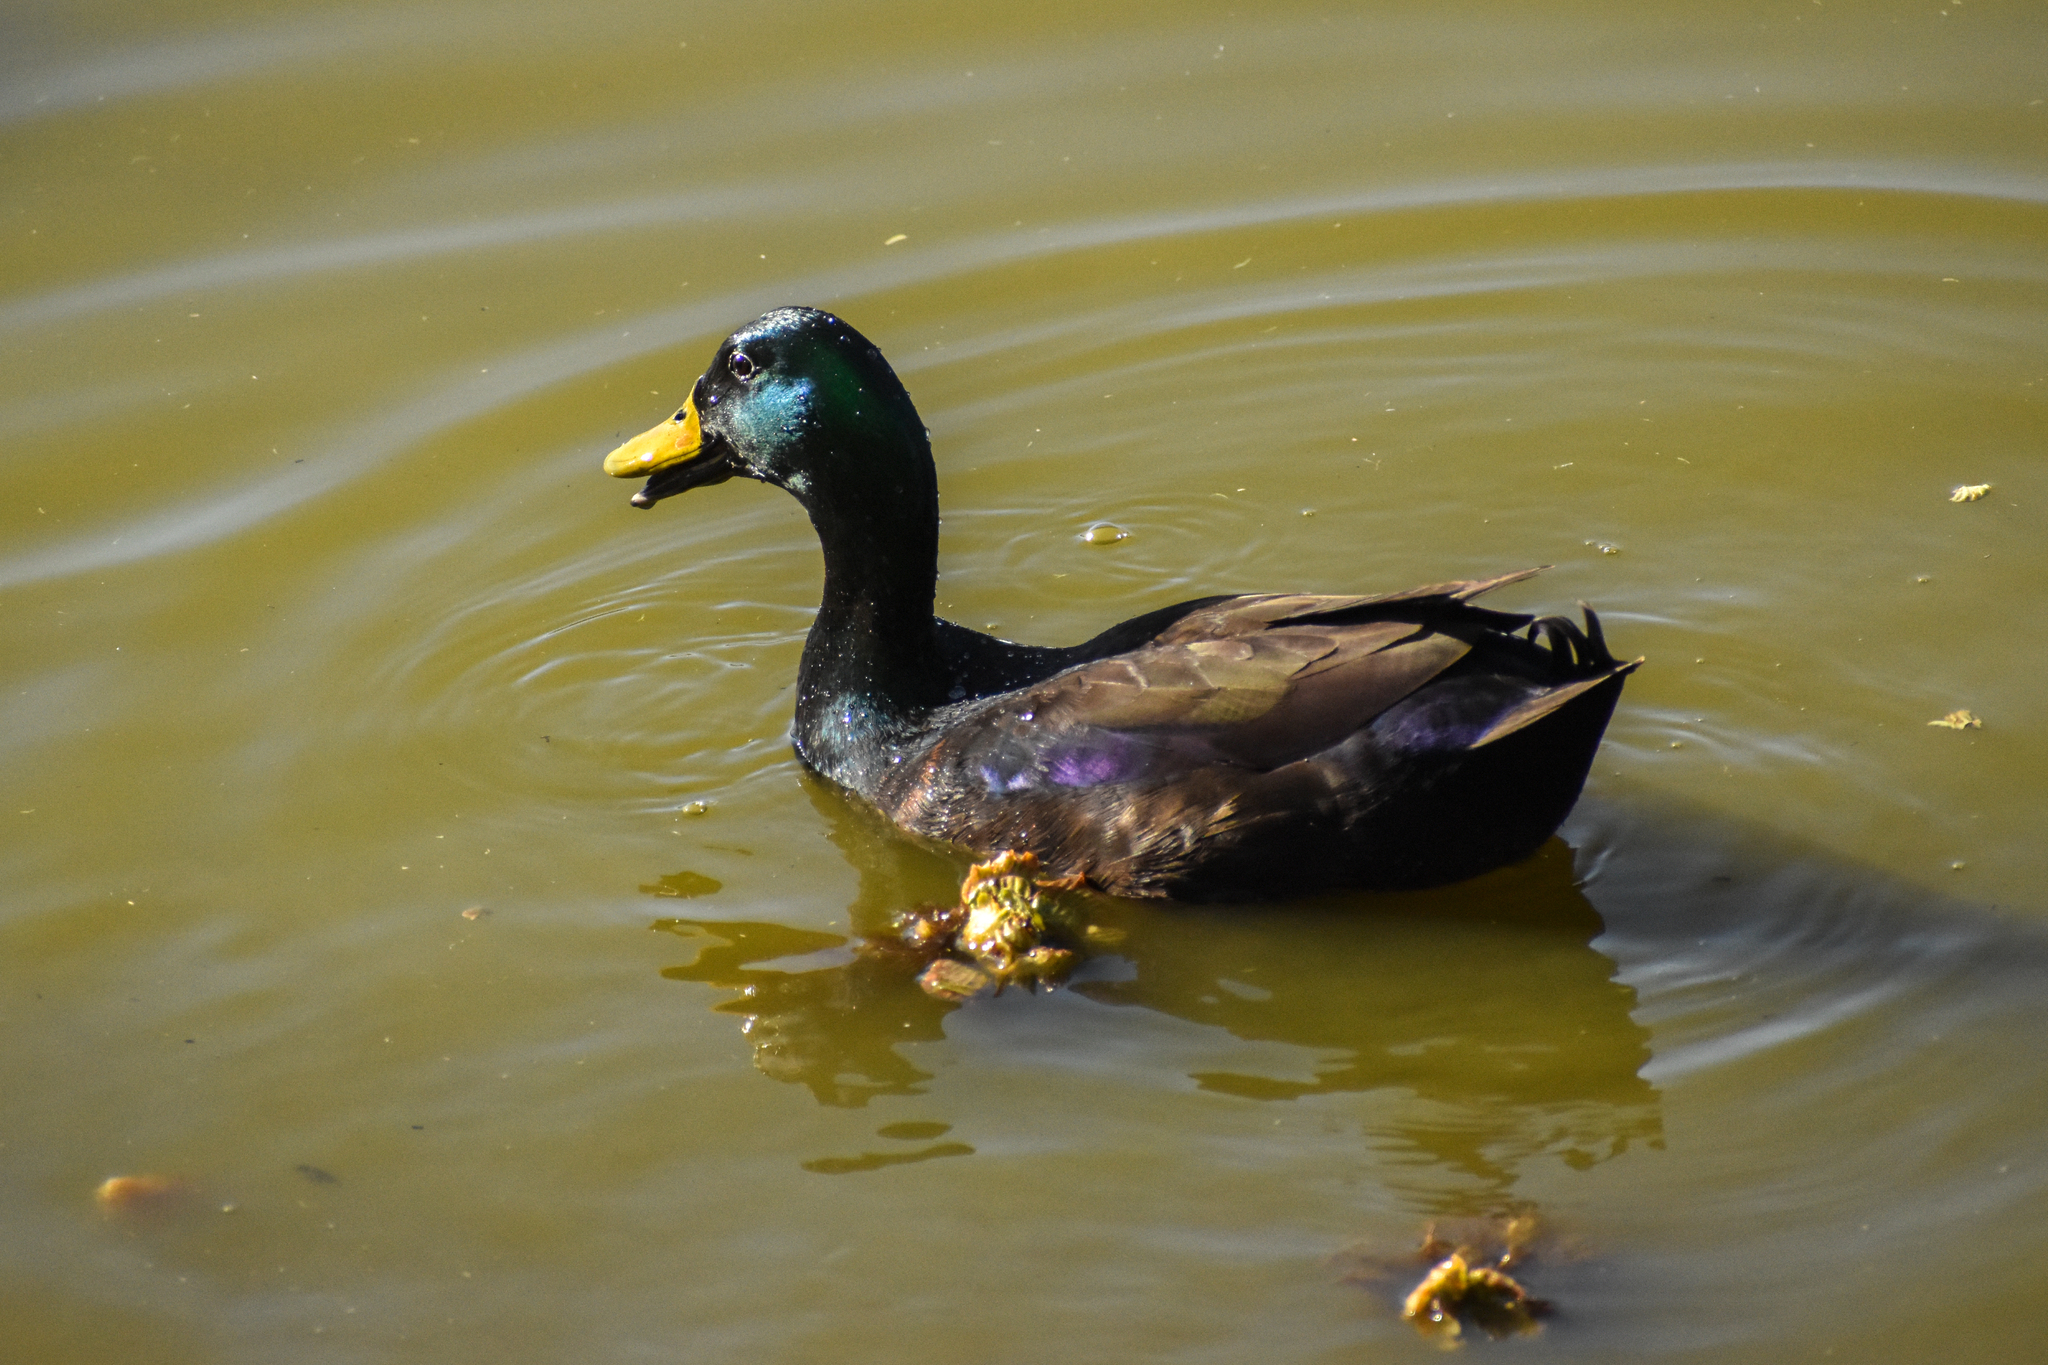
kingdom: Animalia
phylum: Chordata
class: Aves
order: Anseriformes
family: Anatidae
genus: Anas
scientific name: Anas platyrhynchos
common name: Mallard
